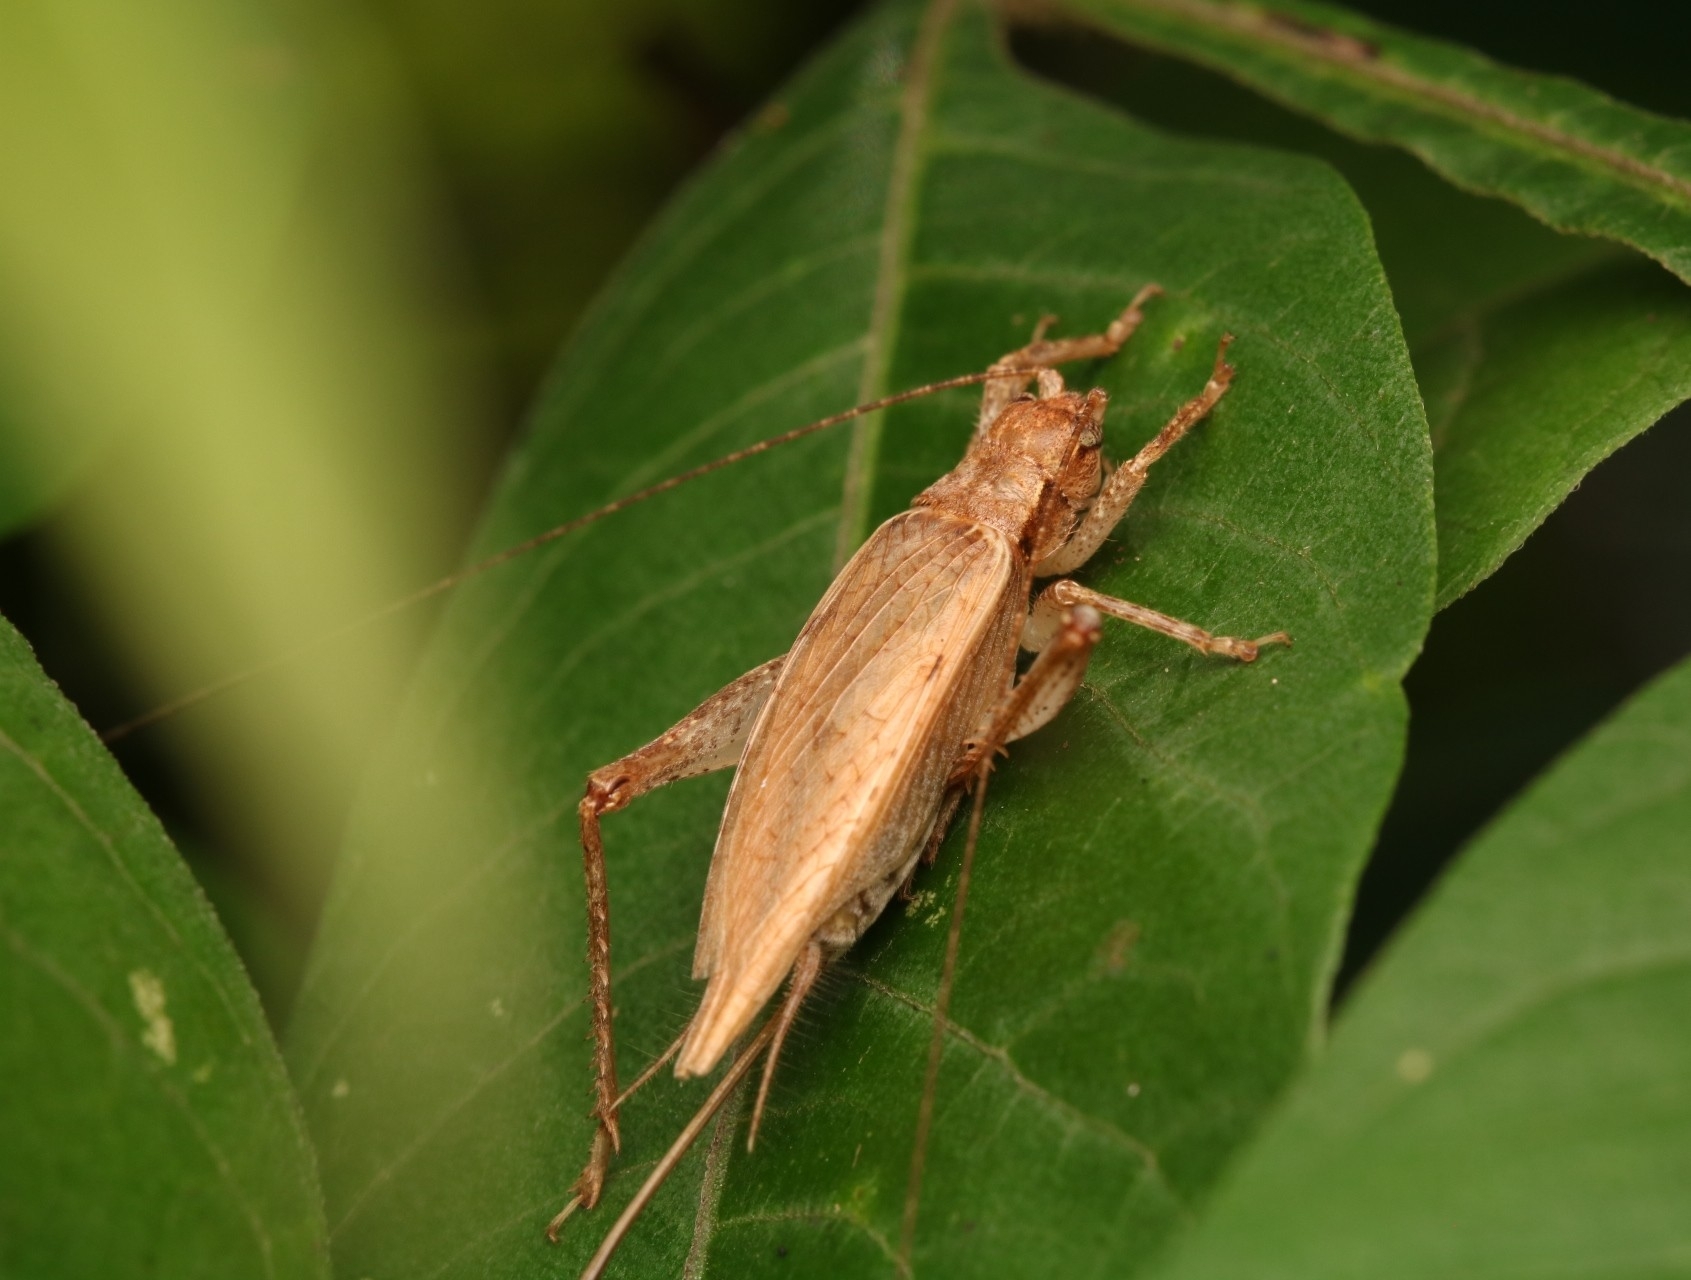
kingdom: Animalia
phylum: Arthropoda
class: Insecta
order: Orthoptera
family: Gryllidae
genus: Hapithus
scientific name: Hapithus saltator
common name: Jumping bush cricket
